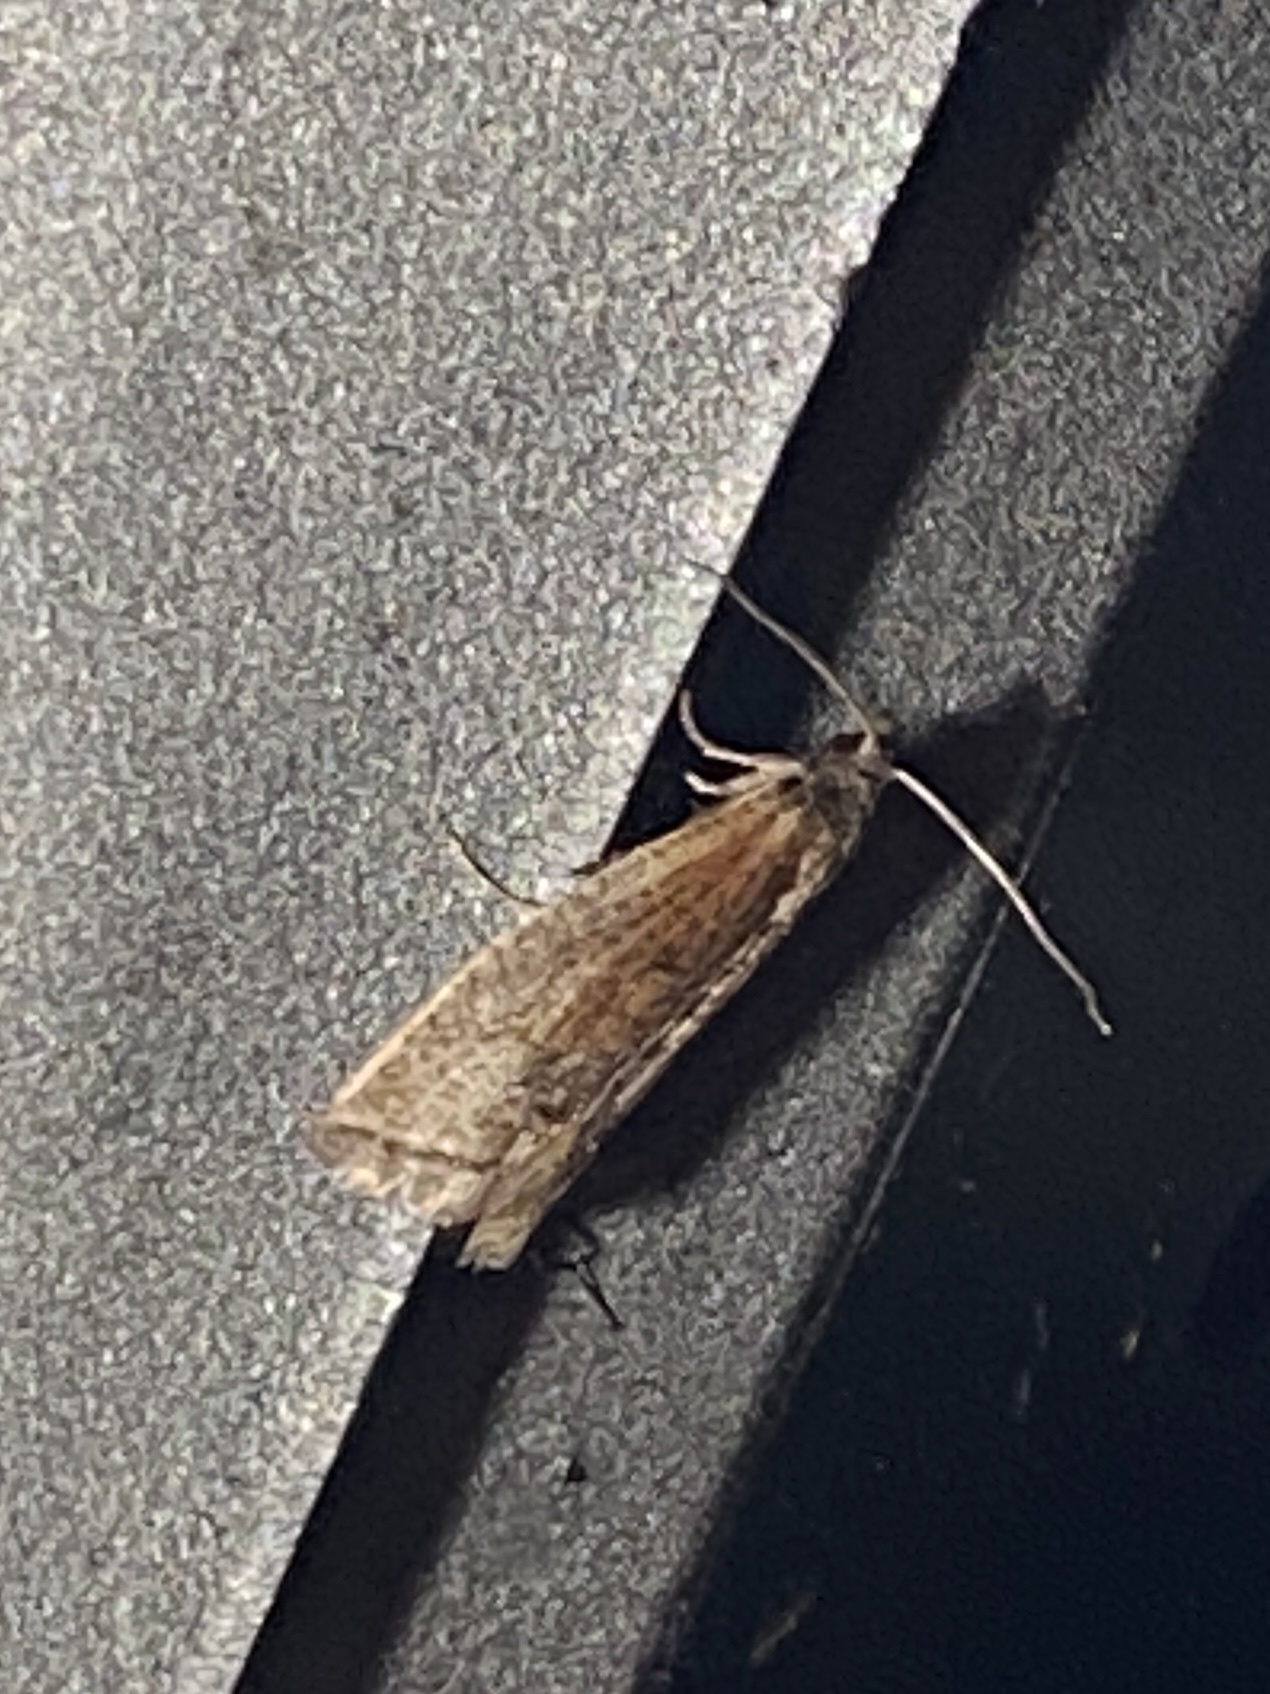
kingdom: Animalia
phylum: Arthropoda
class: Insecta
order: Lepidoptera
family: Tortricidae
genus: Eucosma
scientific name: Eucosma kokana
